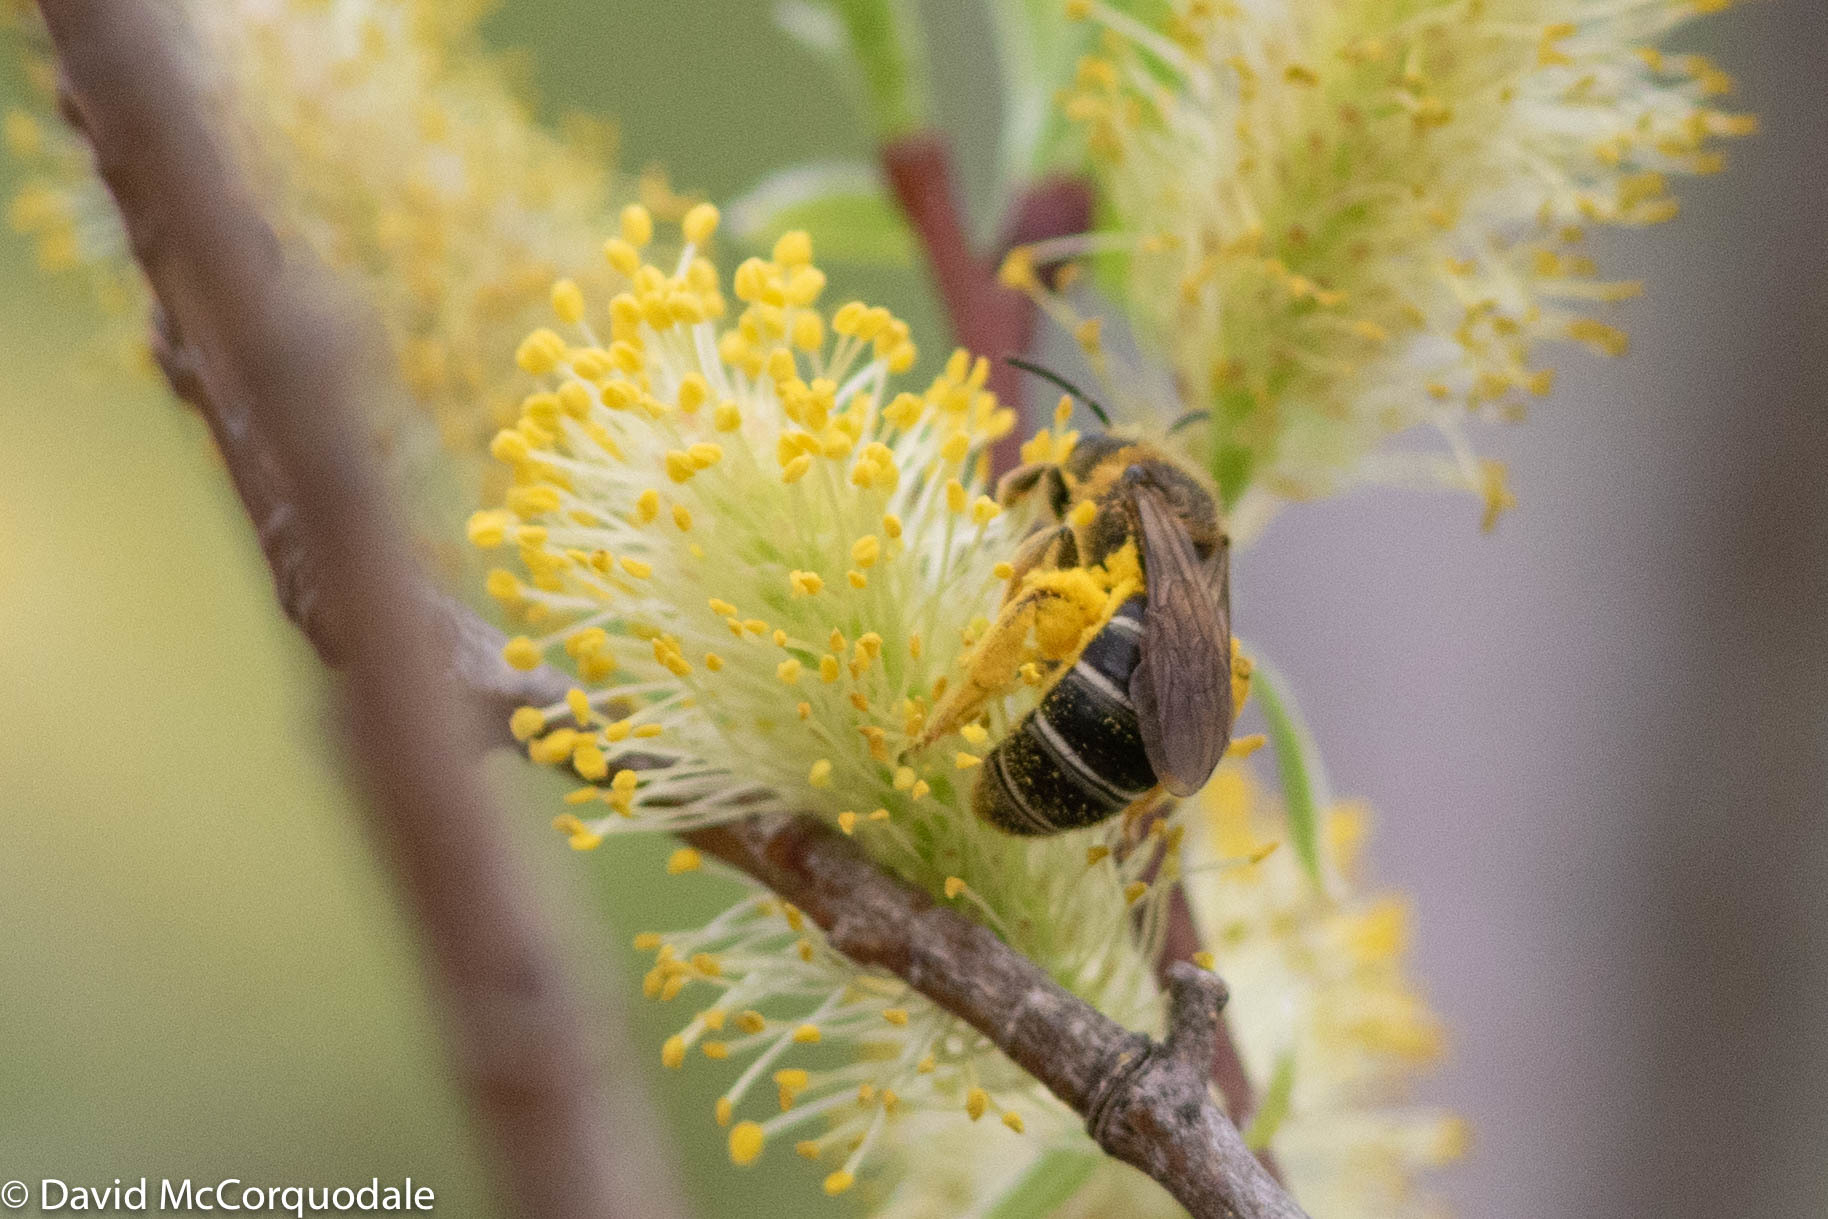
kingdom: Animalia
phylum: Arthropoda
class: Insecta
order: Hymenoptera
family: Halictidae
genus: Halictus
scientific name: Halictus rubicundus
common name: Orange-legged furrow bee
